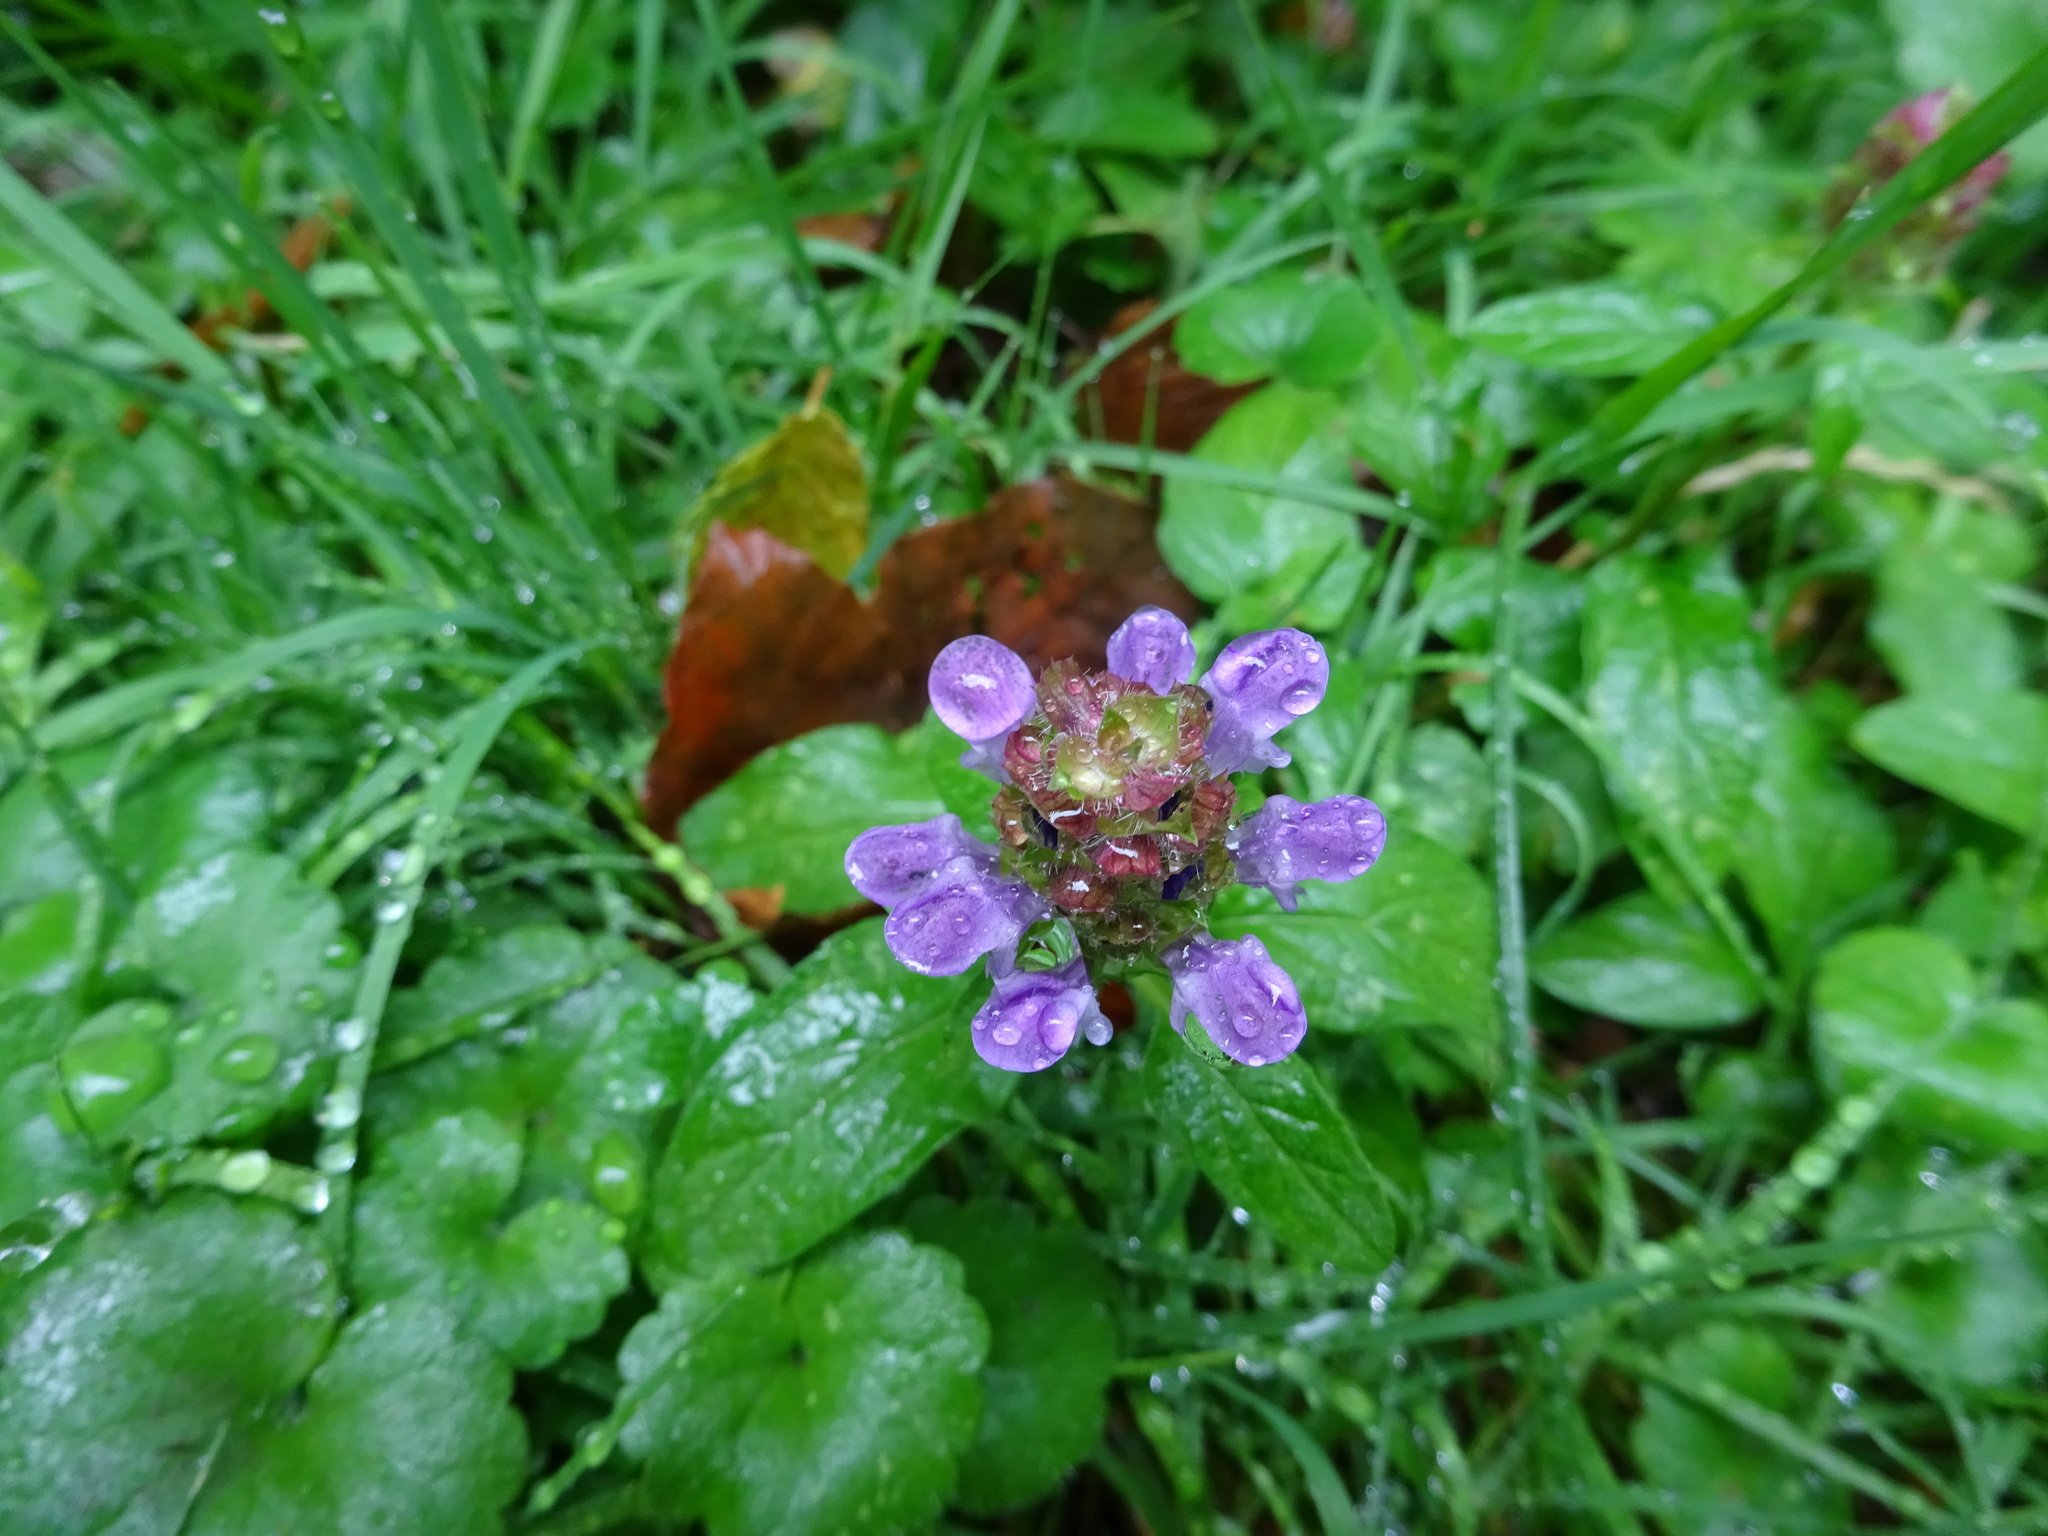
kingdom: Plantae
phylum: Tracheophyta
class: Magnoliopsida
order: Lamiales
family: Lamiaceae
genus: Prunella
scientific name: Prunella vulgaris
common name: Heal-all
